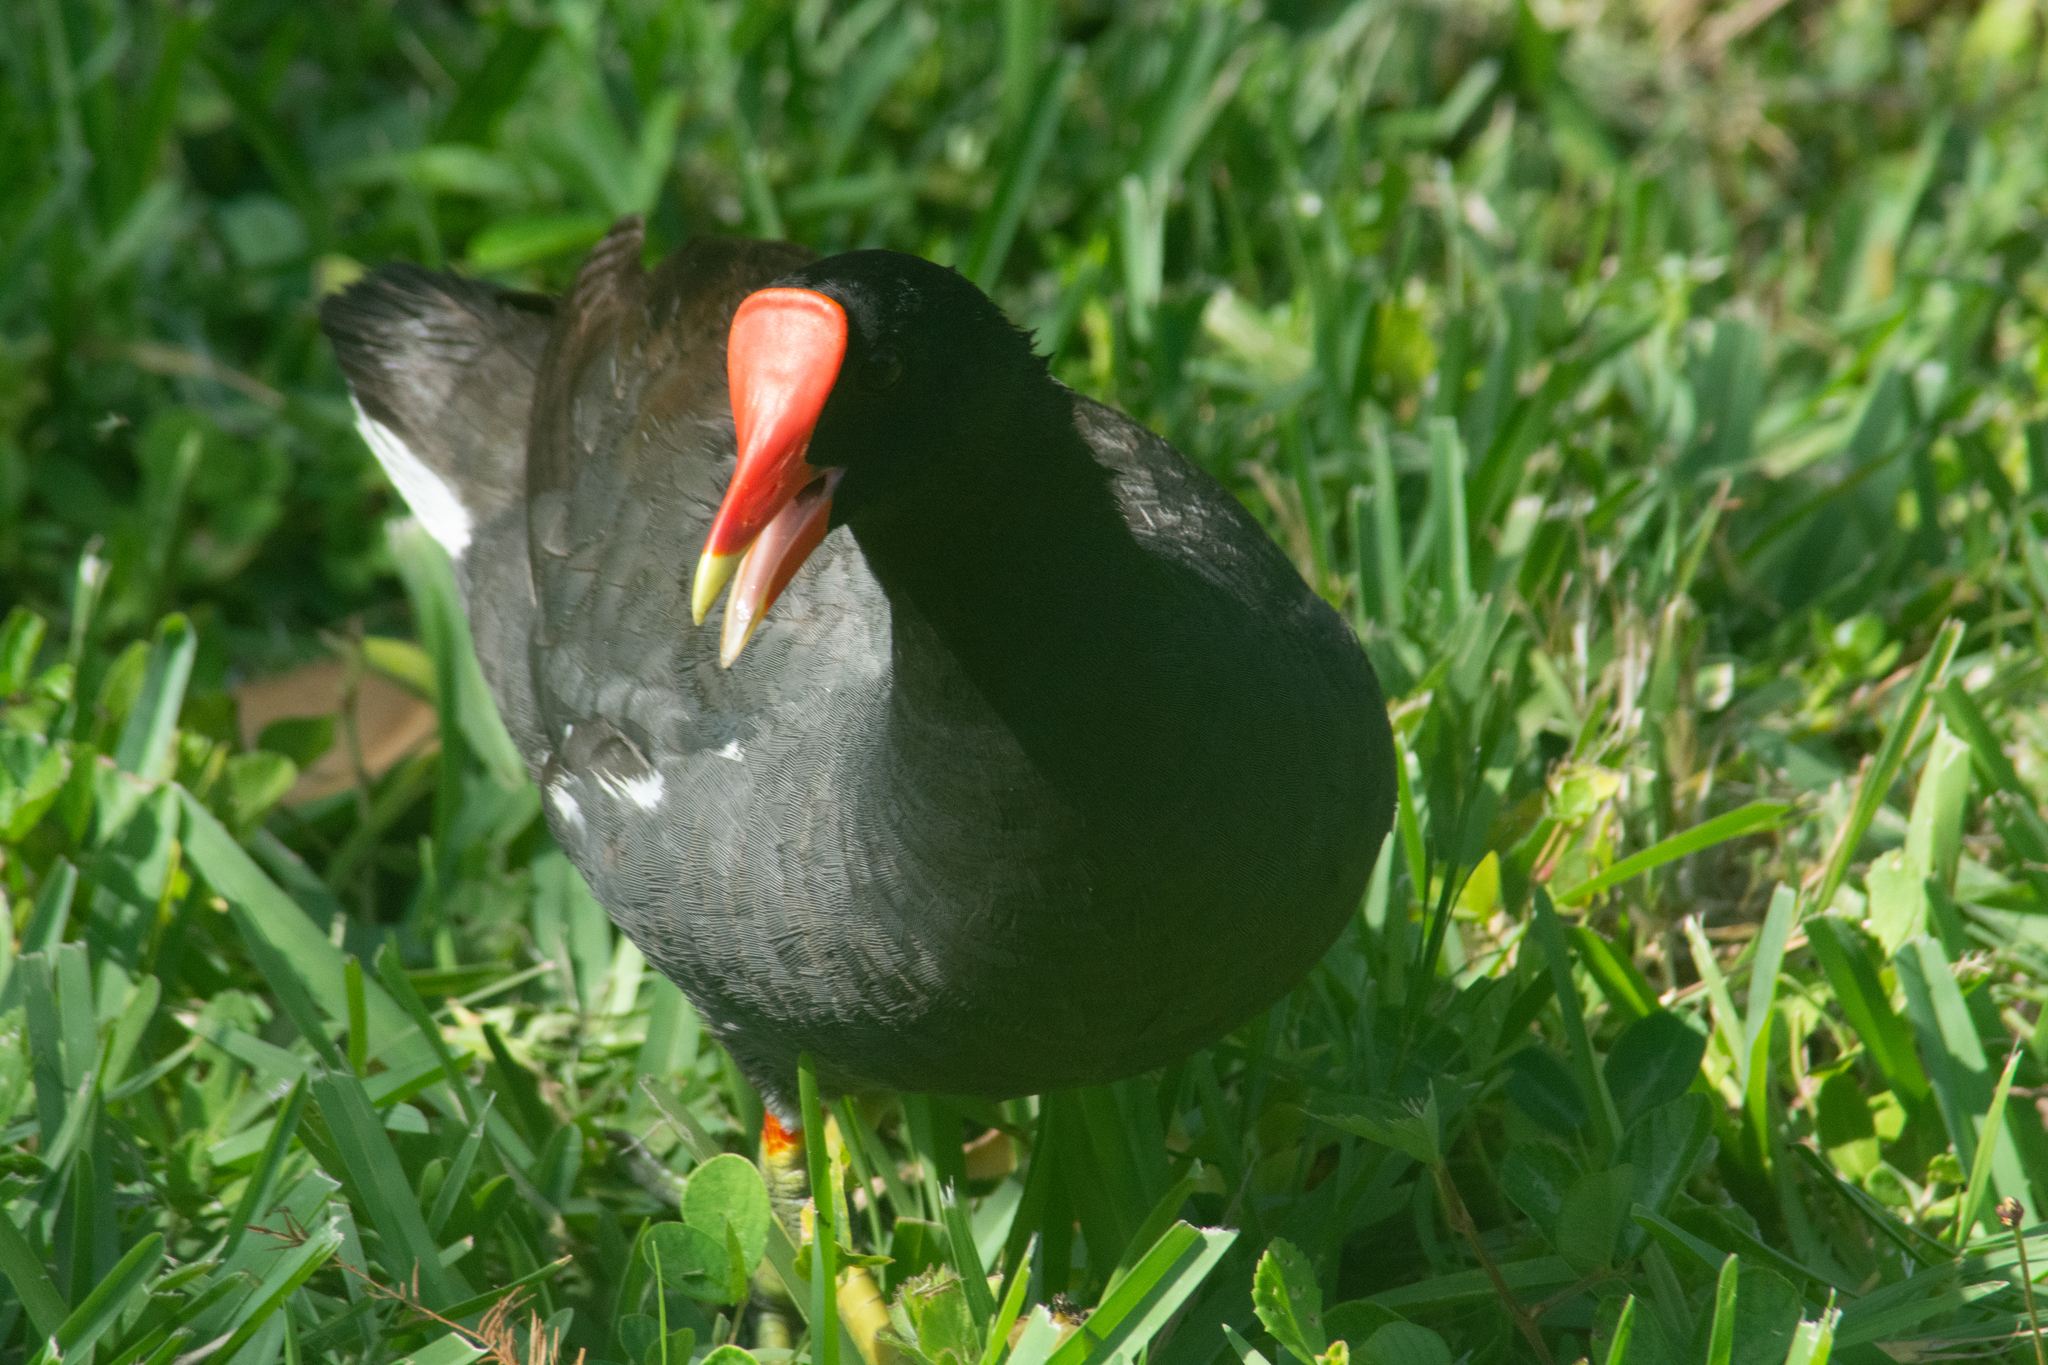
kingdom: Animalia
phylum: Chordata
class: Aves
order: Gruiformes
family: Rallidae
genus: Gallinula
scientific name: Gallinula chloropus
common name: Common moorhen
